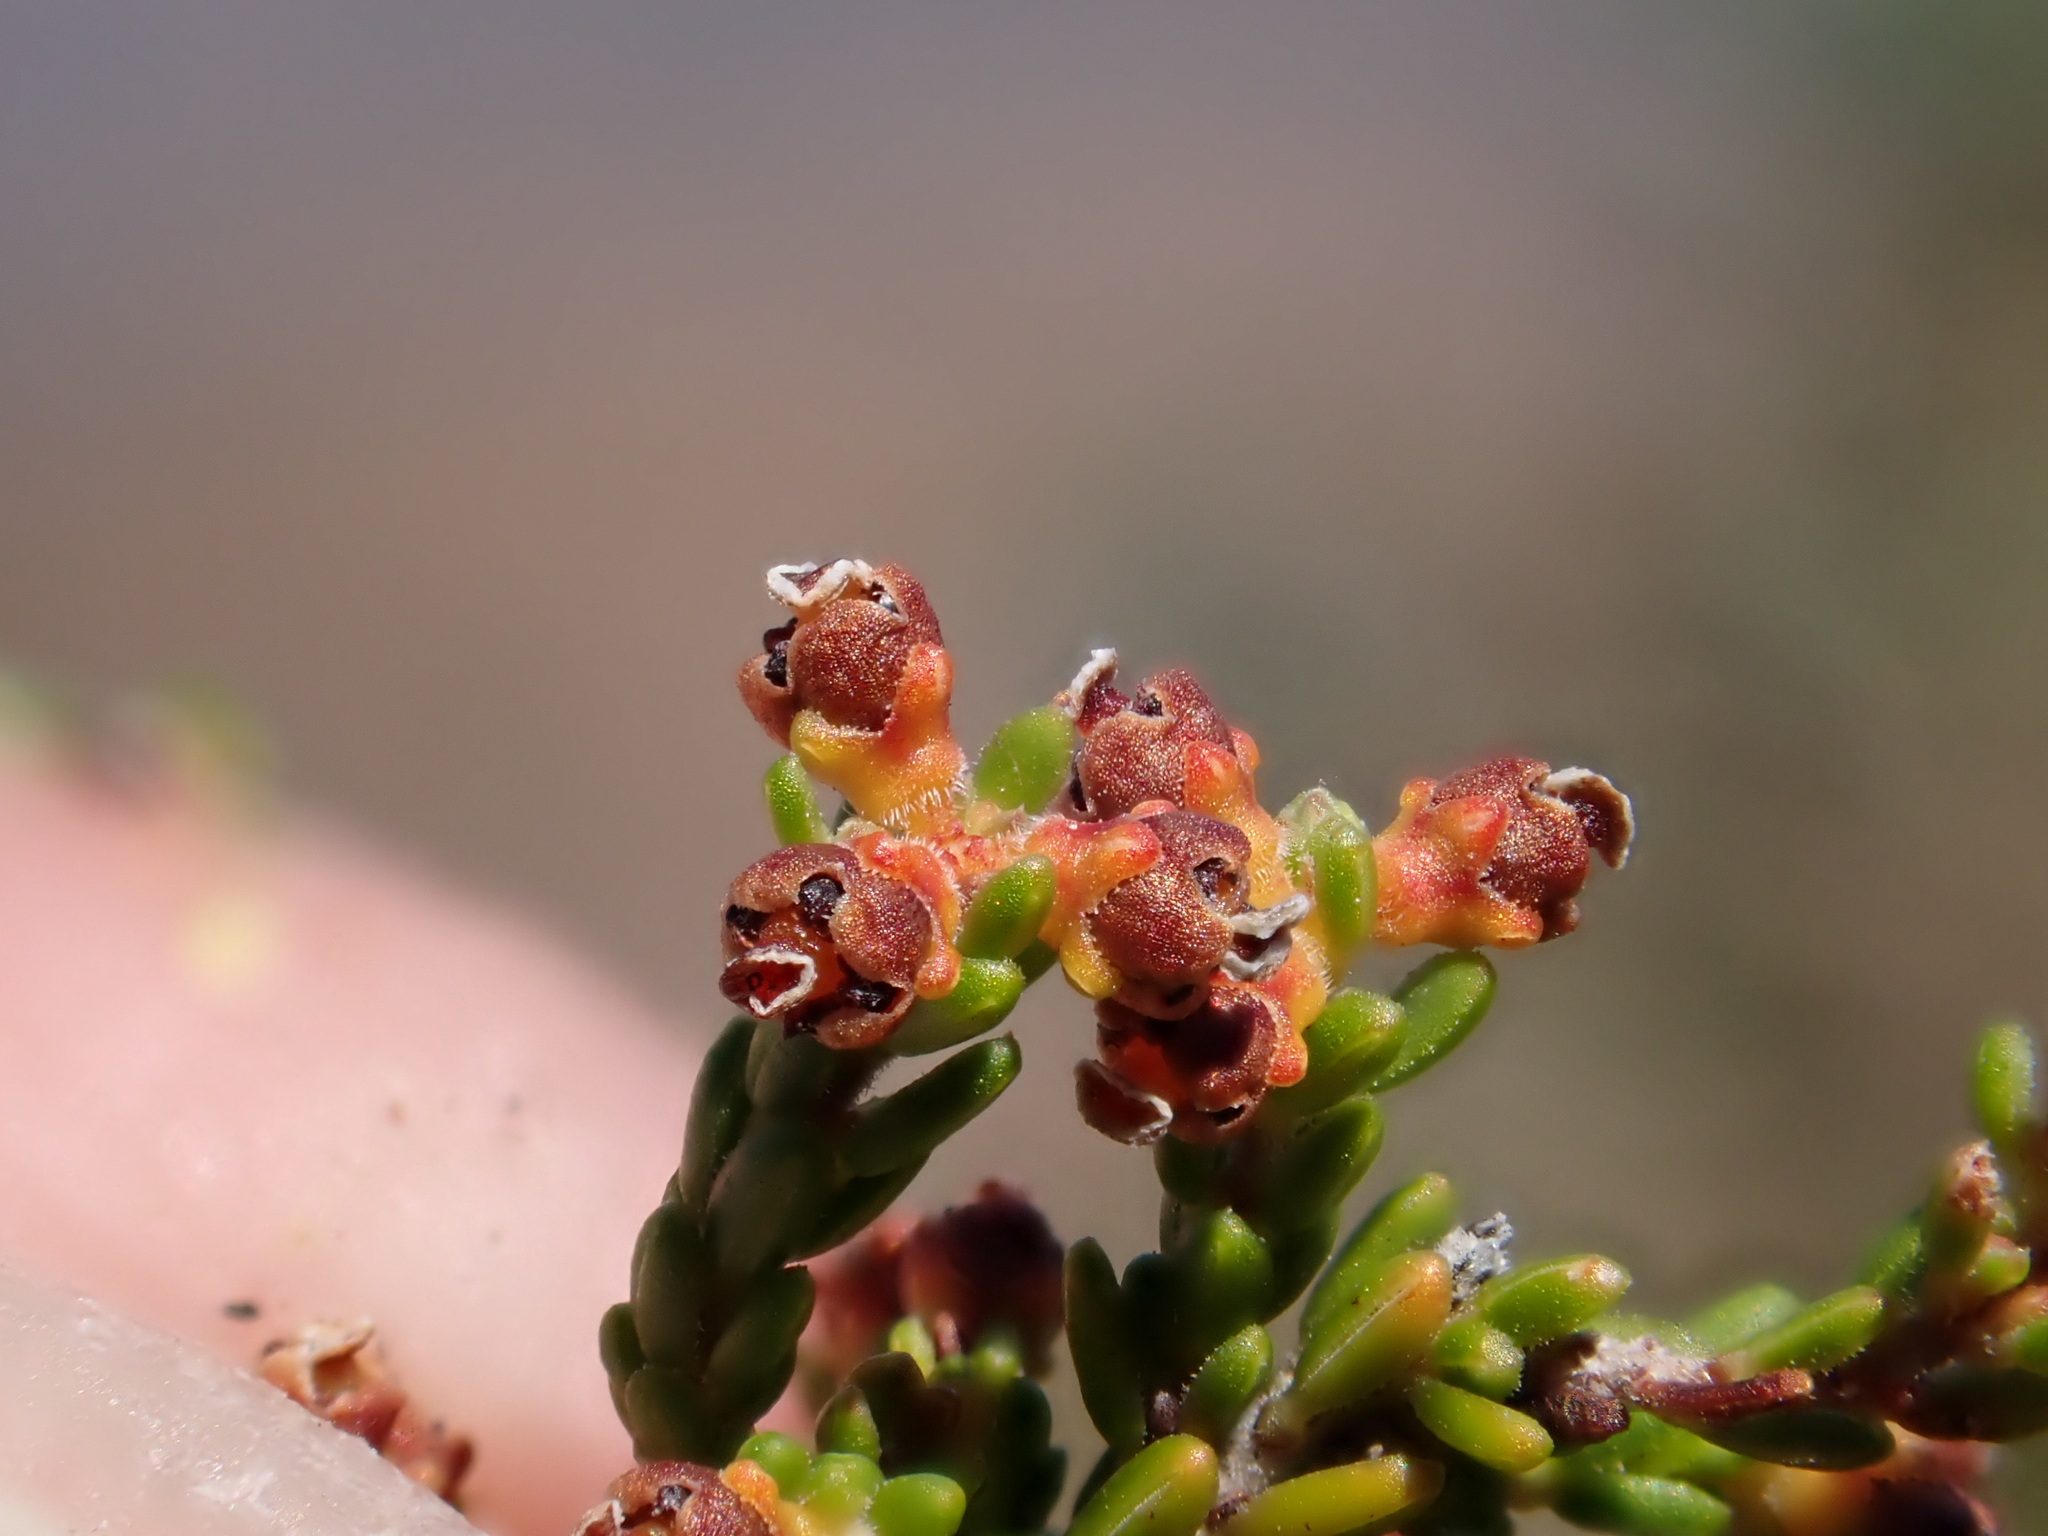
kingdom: Plantae
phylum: Tracheophyta
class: Magnoliopsida
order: Ericales
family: Ericaceae
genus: Erica
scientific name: Erica melanomontana
